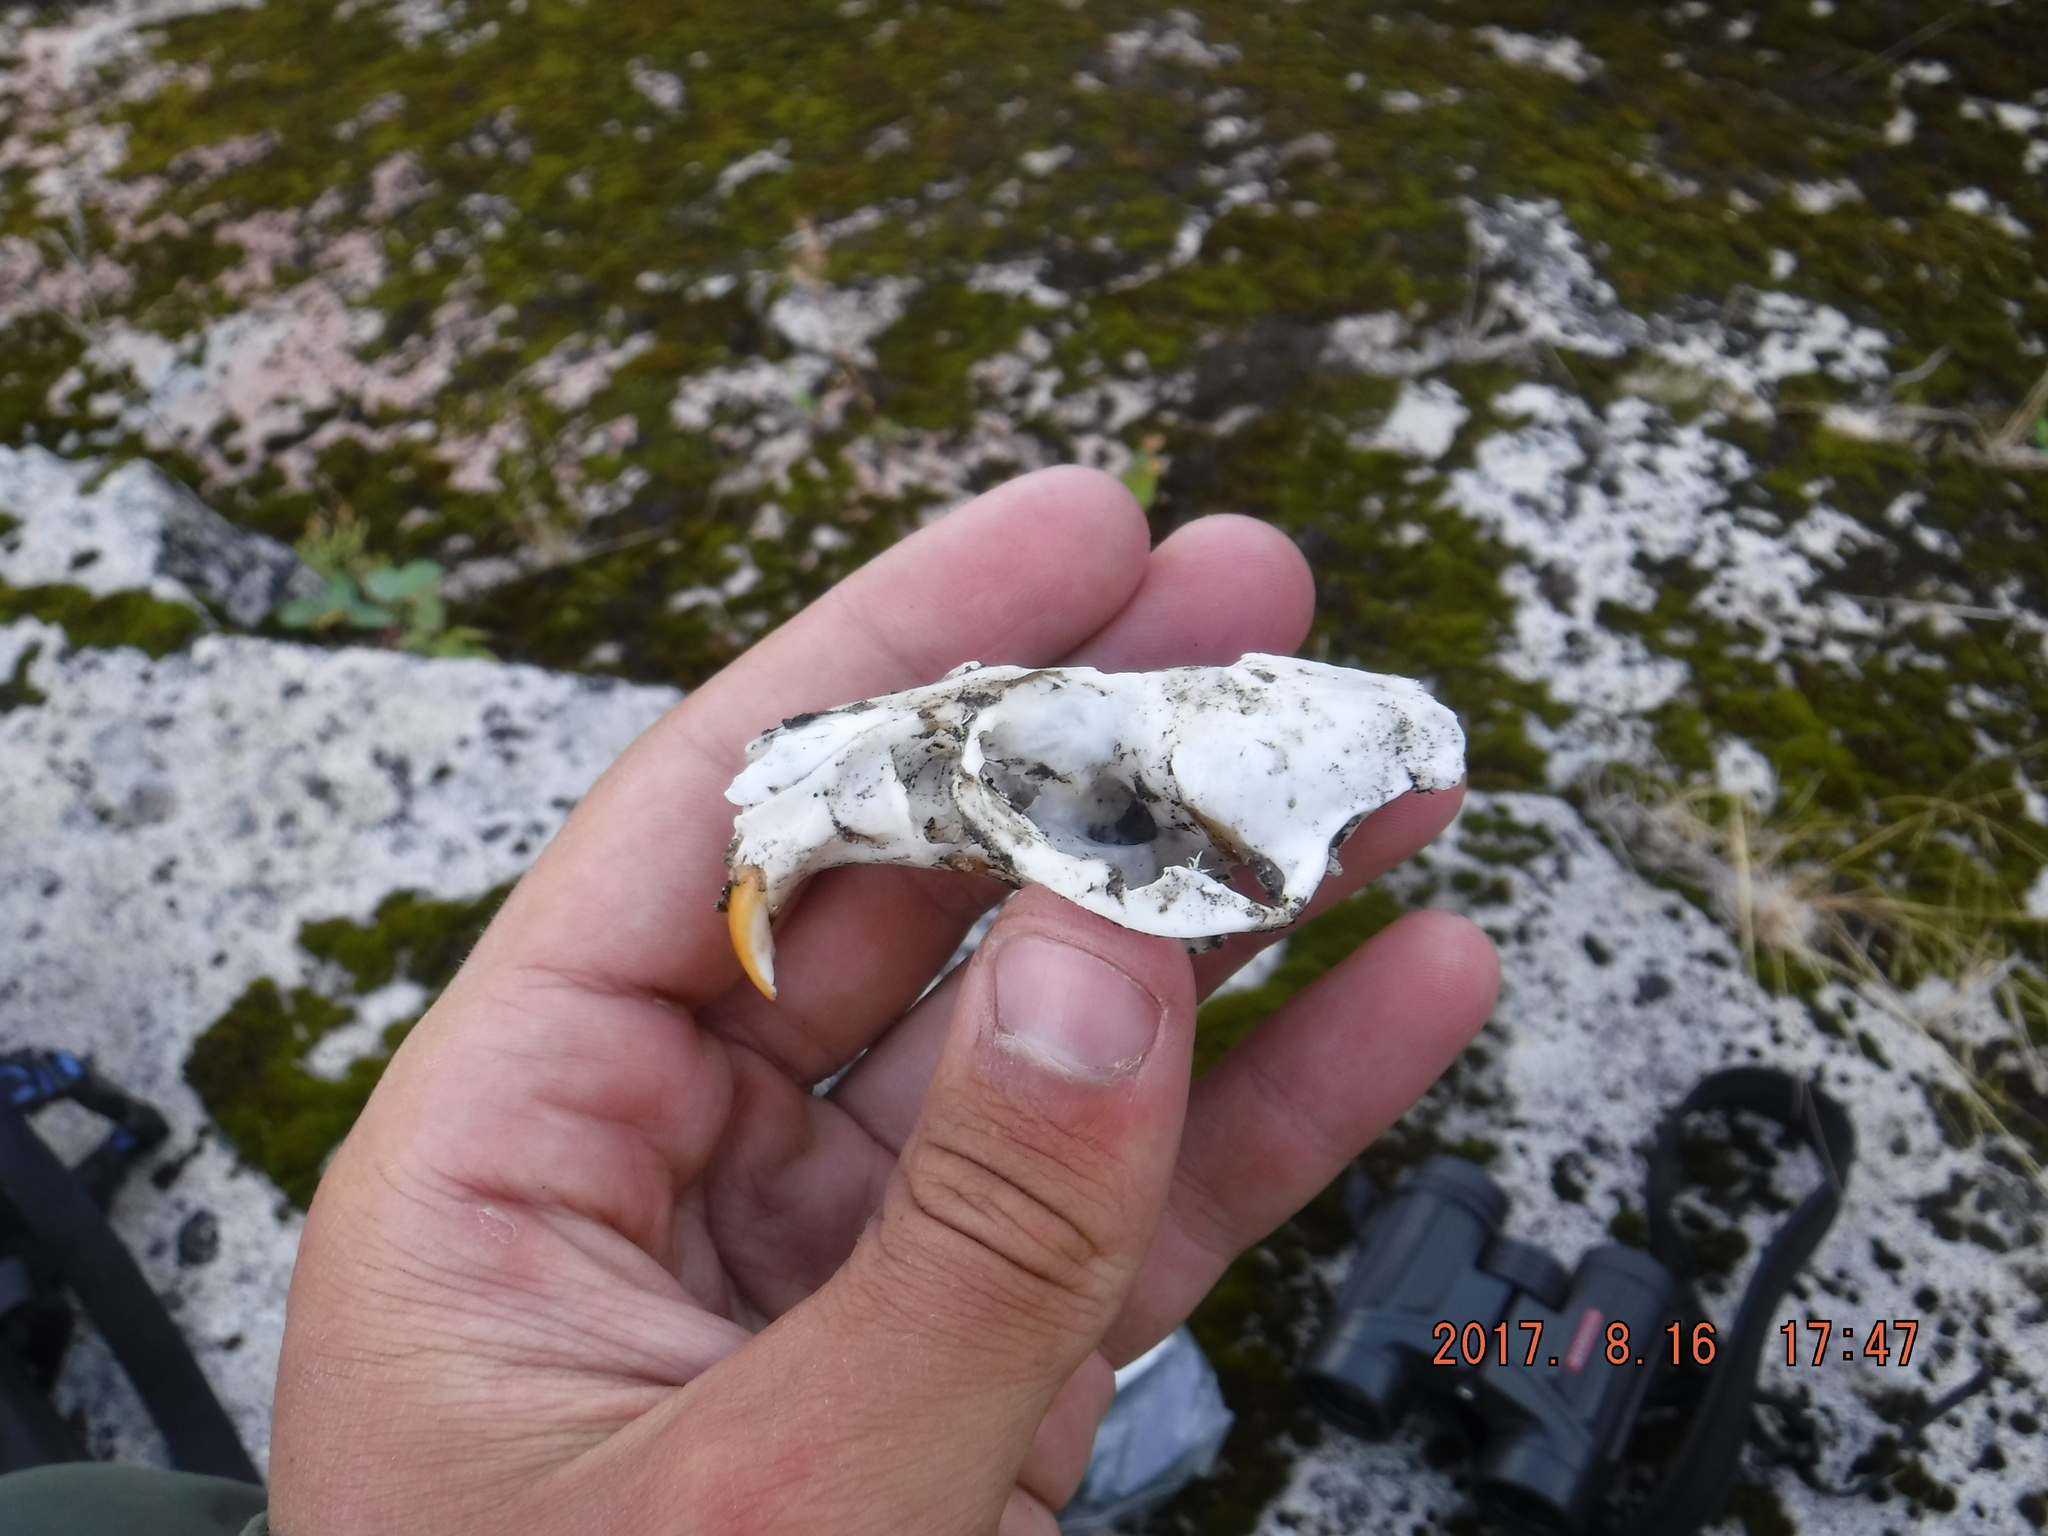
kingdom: Animalia
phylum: Chordata
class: Mammalia
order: Rodentia
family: Cricetidae
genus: Ondatra
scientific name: Ondatra zibethicus
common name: Muskrat
